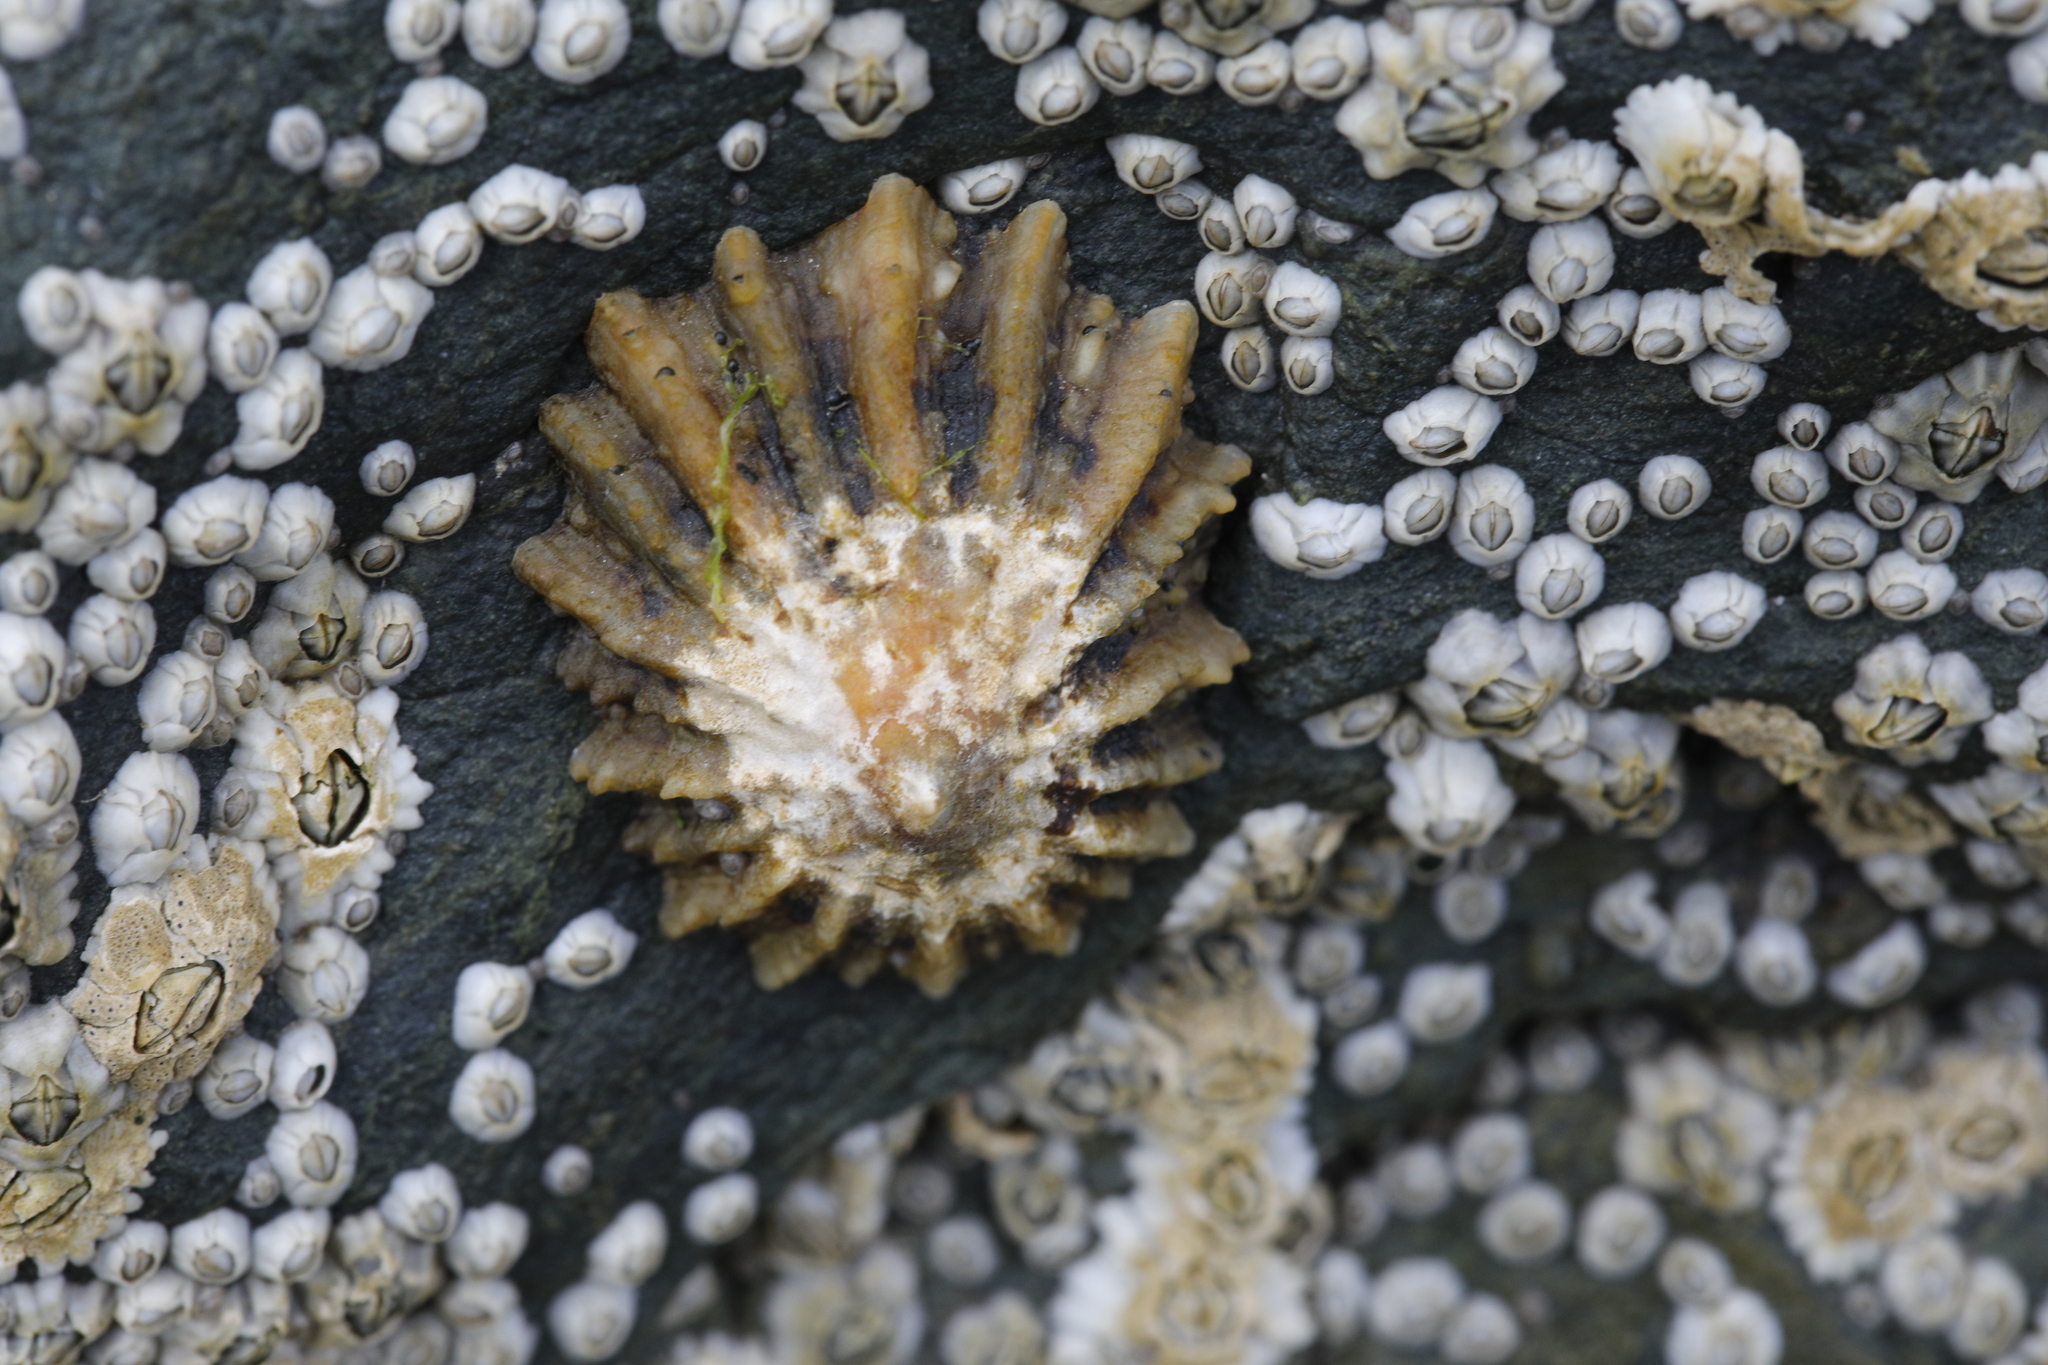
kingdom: Animalia
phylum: Mollusca
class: Gastropoda
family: Patellidae
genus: Patella
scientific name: Patella
